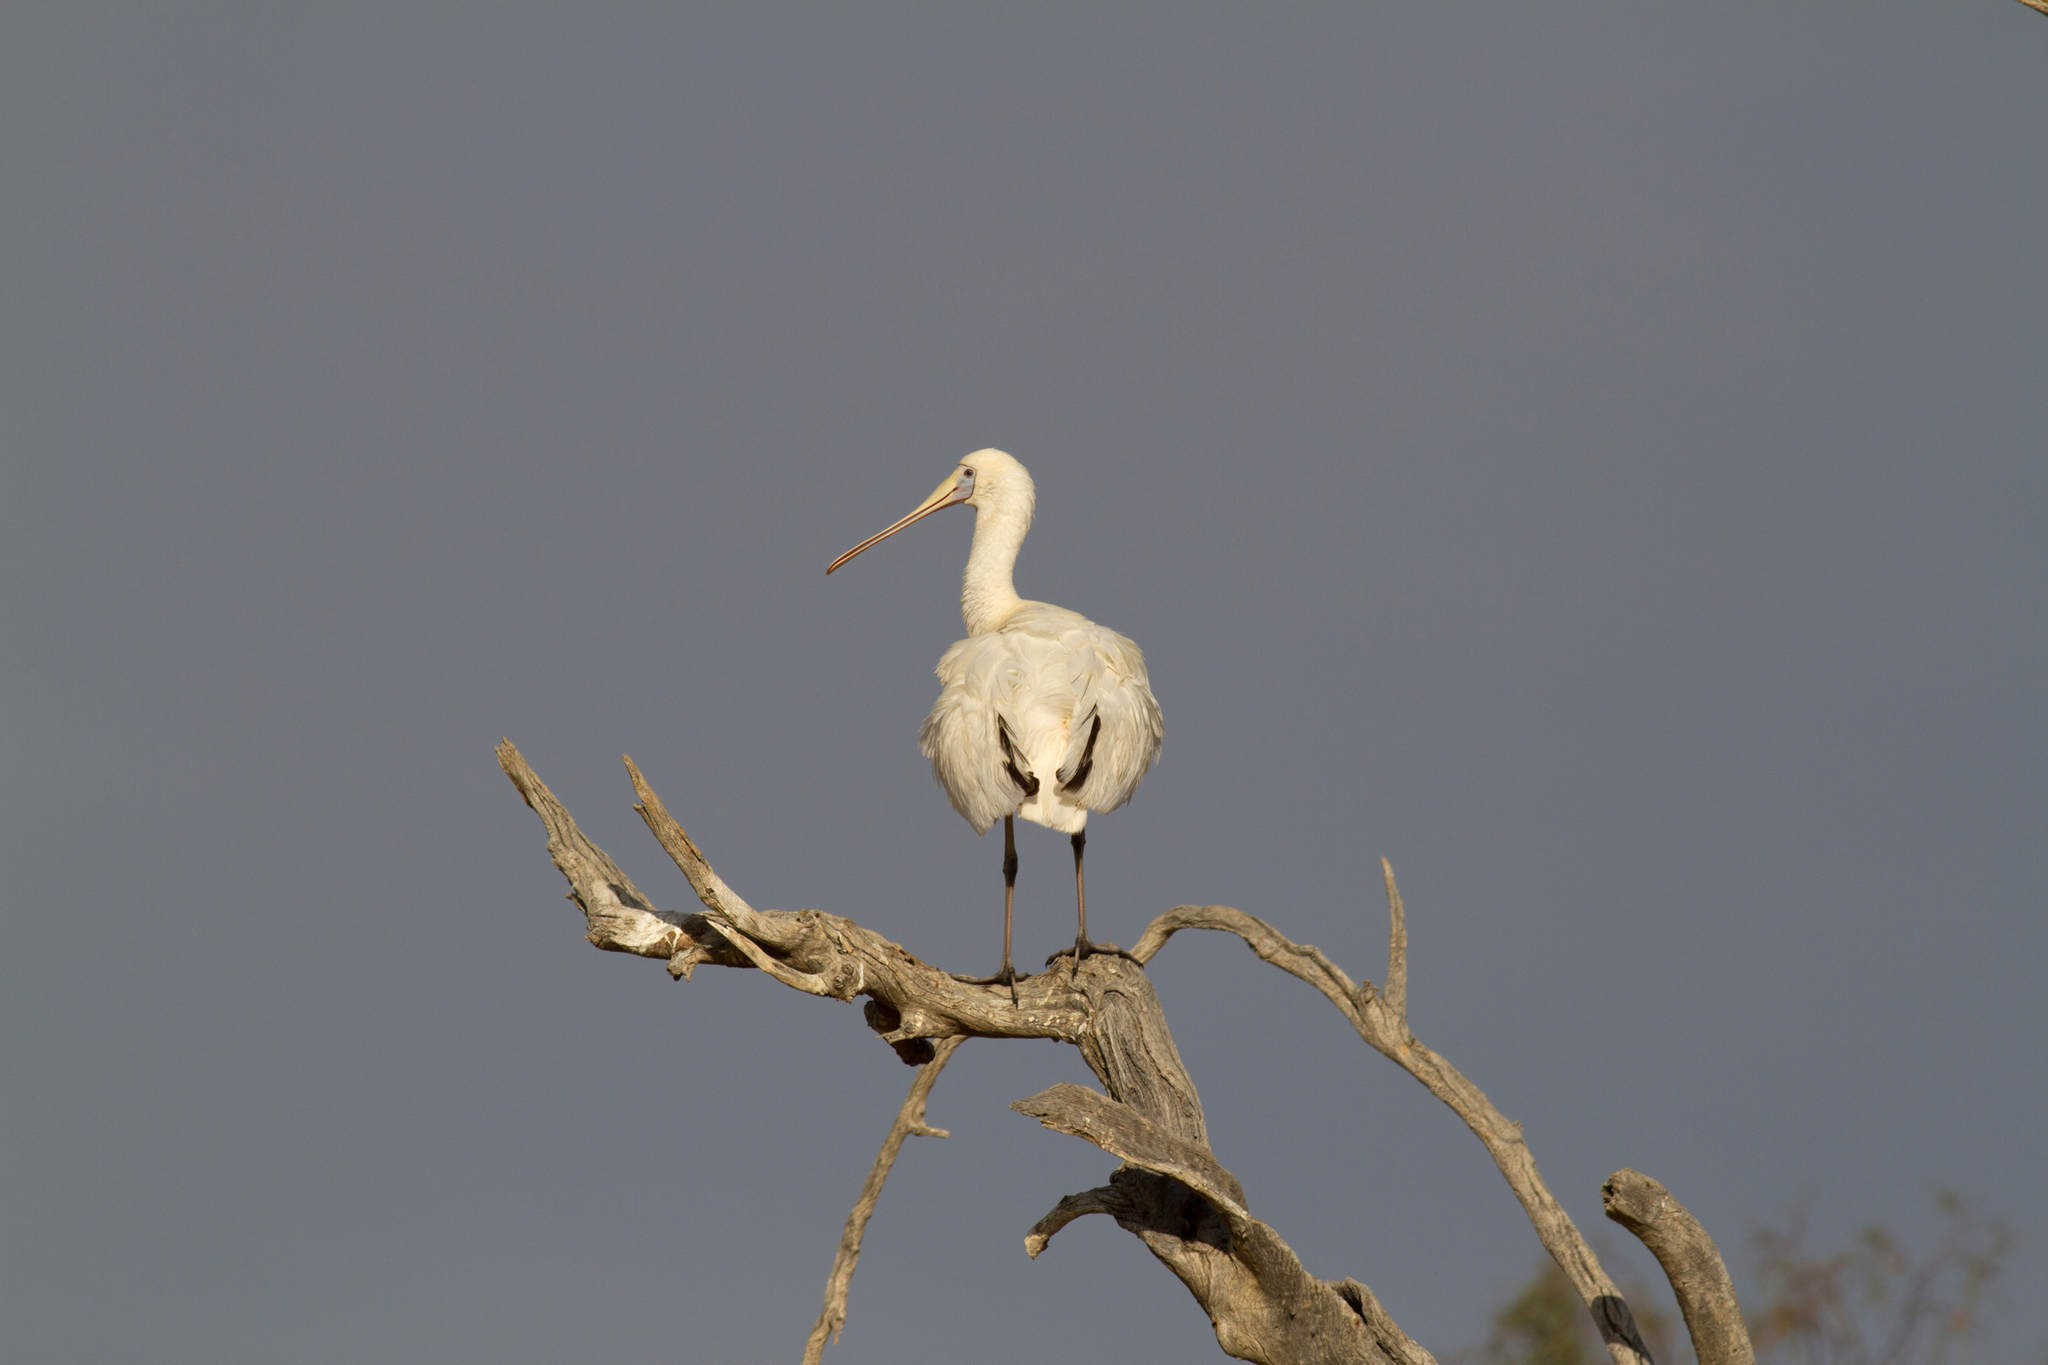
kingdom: Animalia
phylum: Chordata
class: Aves
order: Pelecaniformes
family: Threskiornithidae
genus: Platalea
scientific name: Platalea flavipes
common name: Yellow-billed spoonbill
